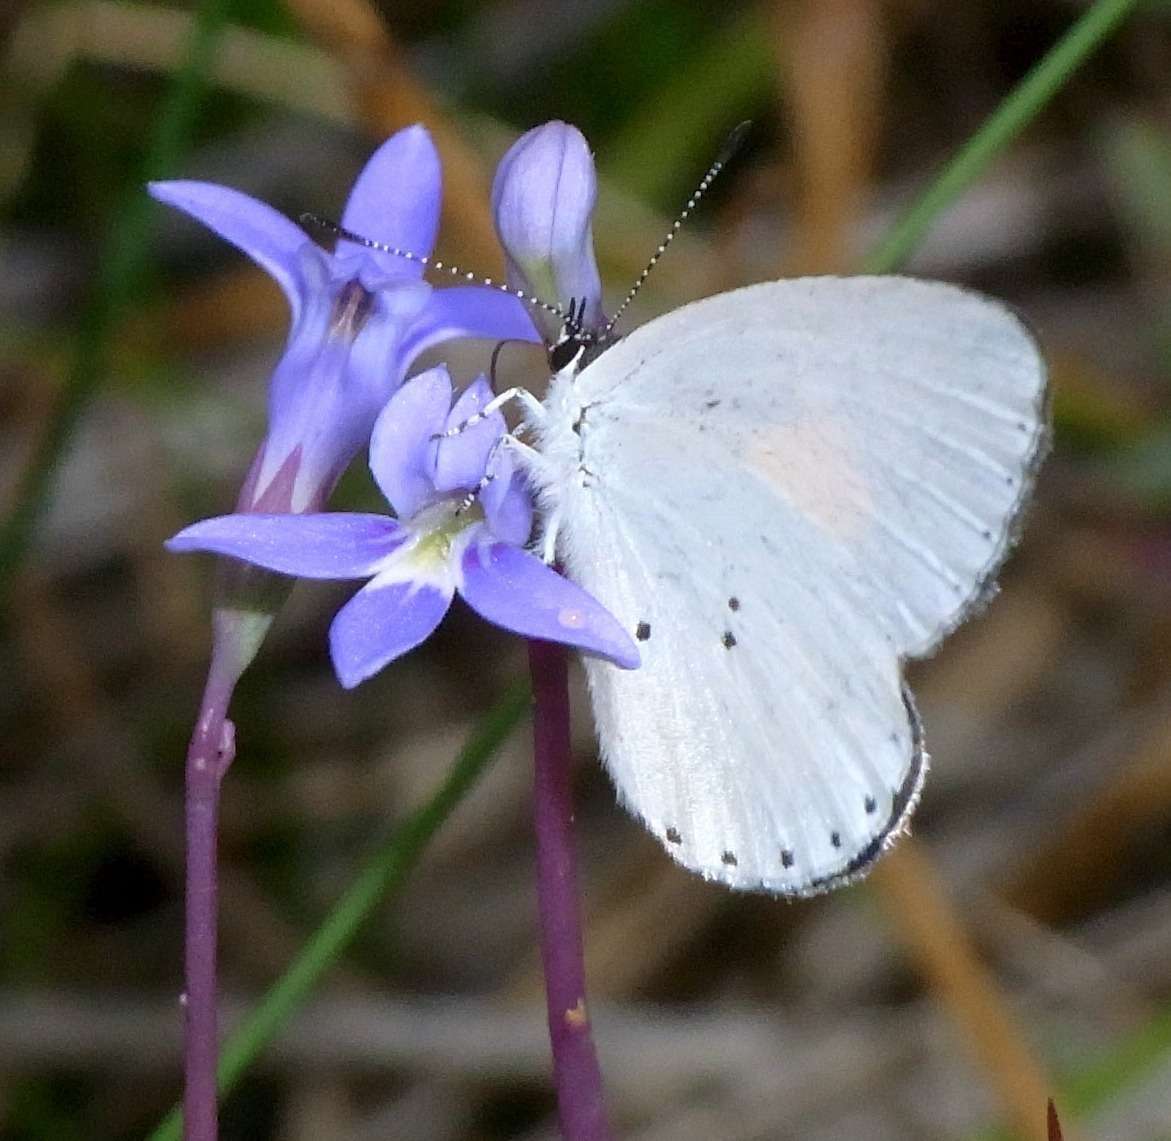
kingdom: Animalia
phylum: Arthropoda
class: Insecta
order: Lepidoptera
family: Lycaenidae
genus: Candalides
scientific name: Candalides xanthospilos
